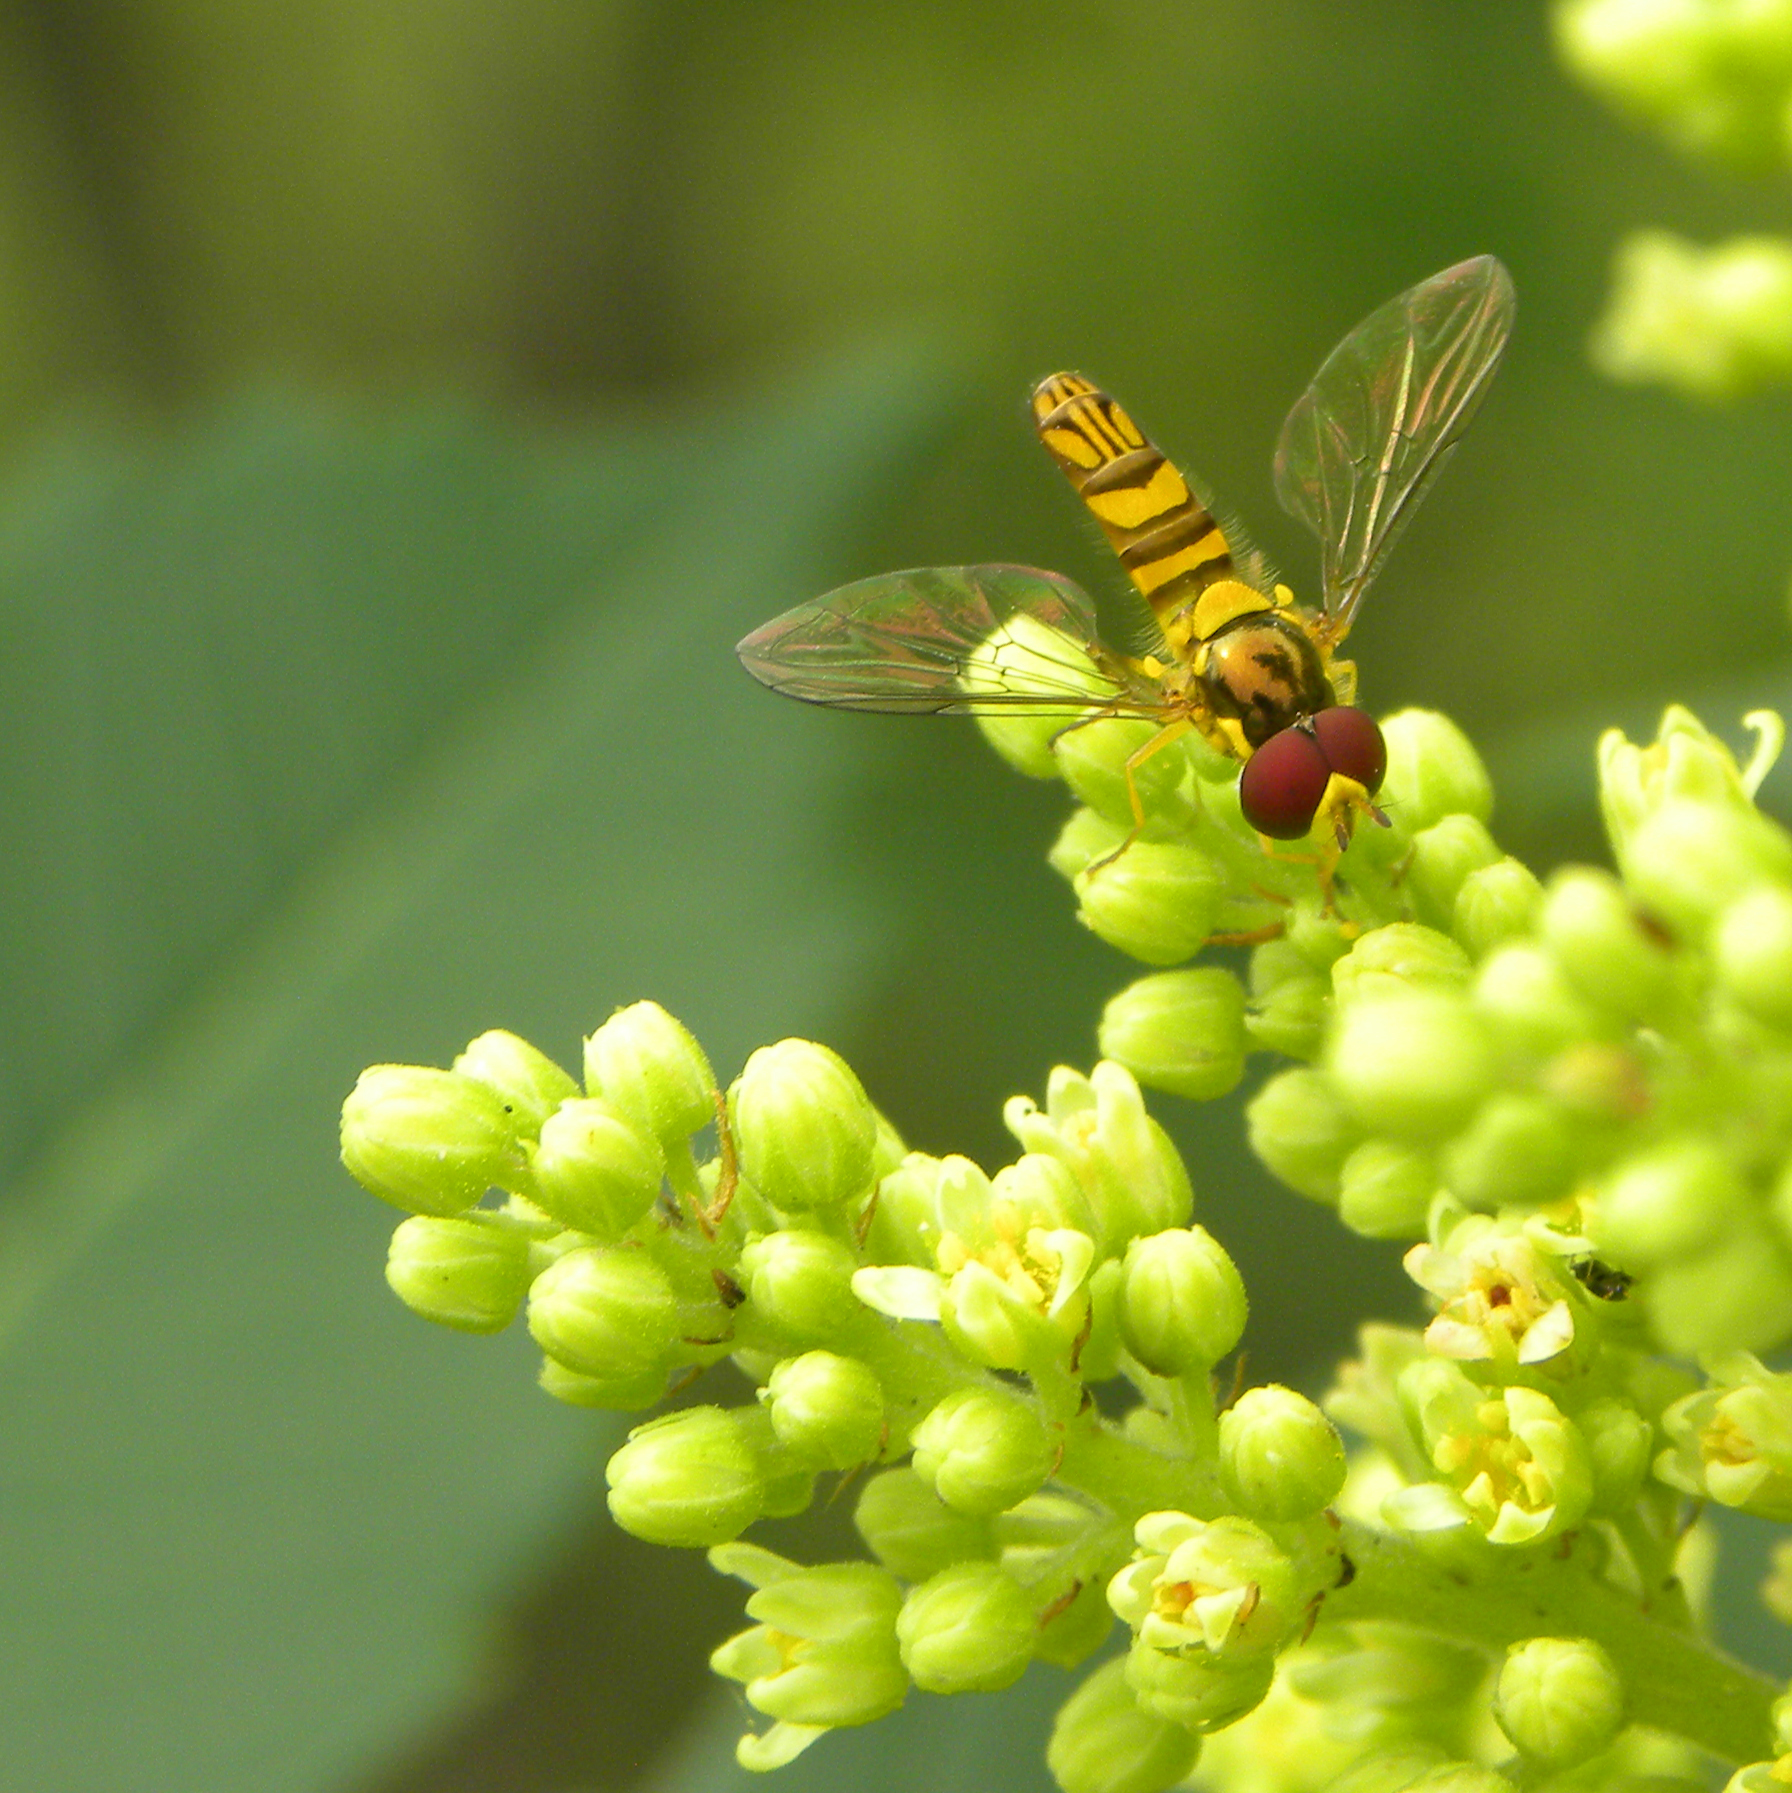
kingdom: Animalia
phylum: Arthropoda
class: Insecta
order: Diptera
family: Syrphidae
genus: Allograpta
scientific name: Allograpta obliqua
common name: Common oblique syrphid
